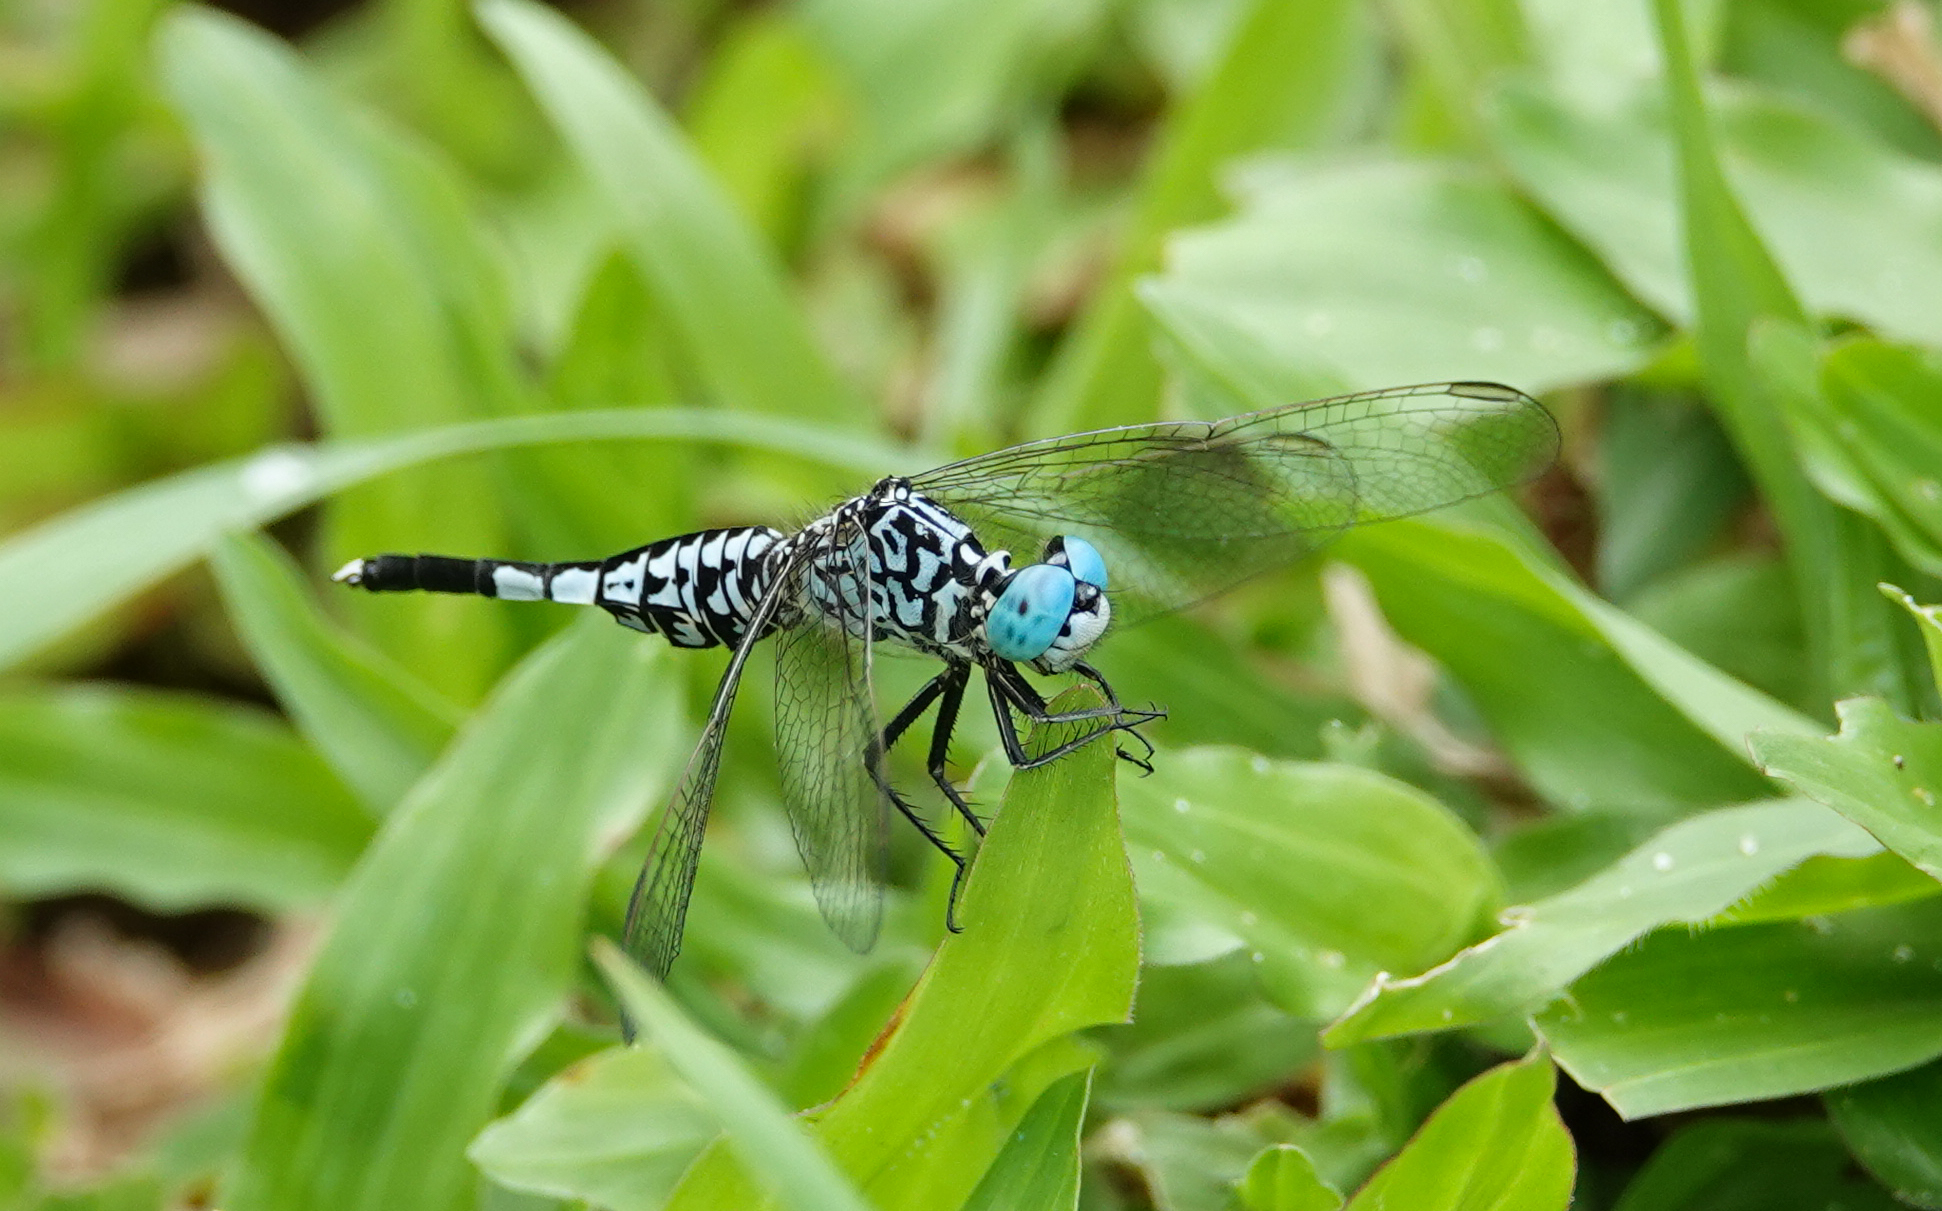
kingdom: Animalia
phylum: Arthropoda
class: Insecta
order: Odonata
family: Libellulidae
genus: Acisoma
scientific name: Acisoma panorpoides
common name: Asian pintail
